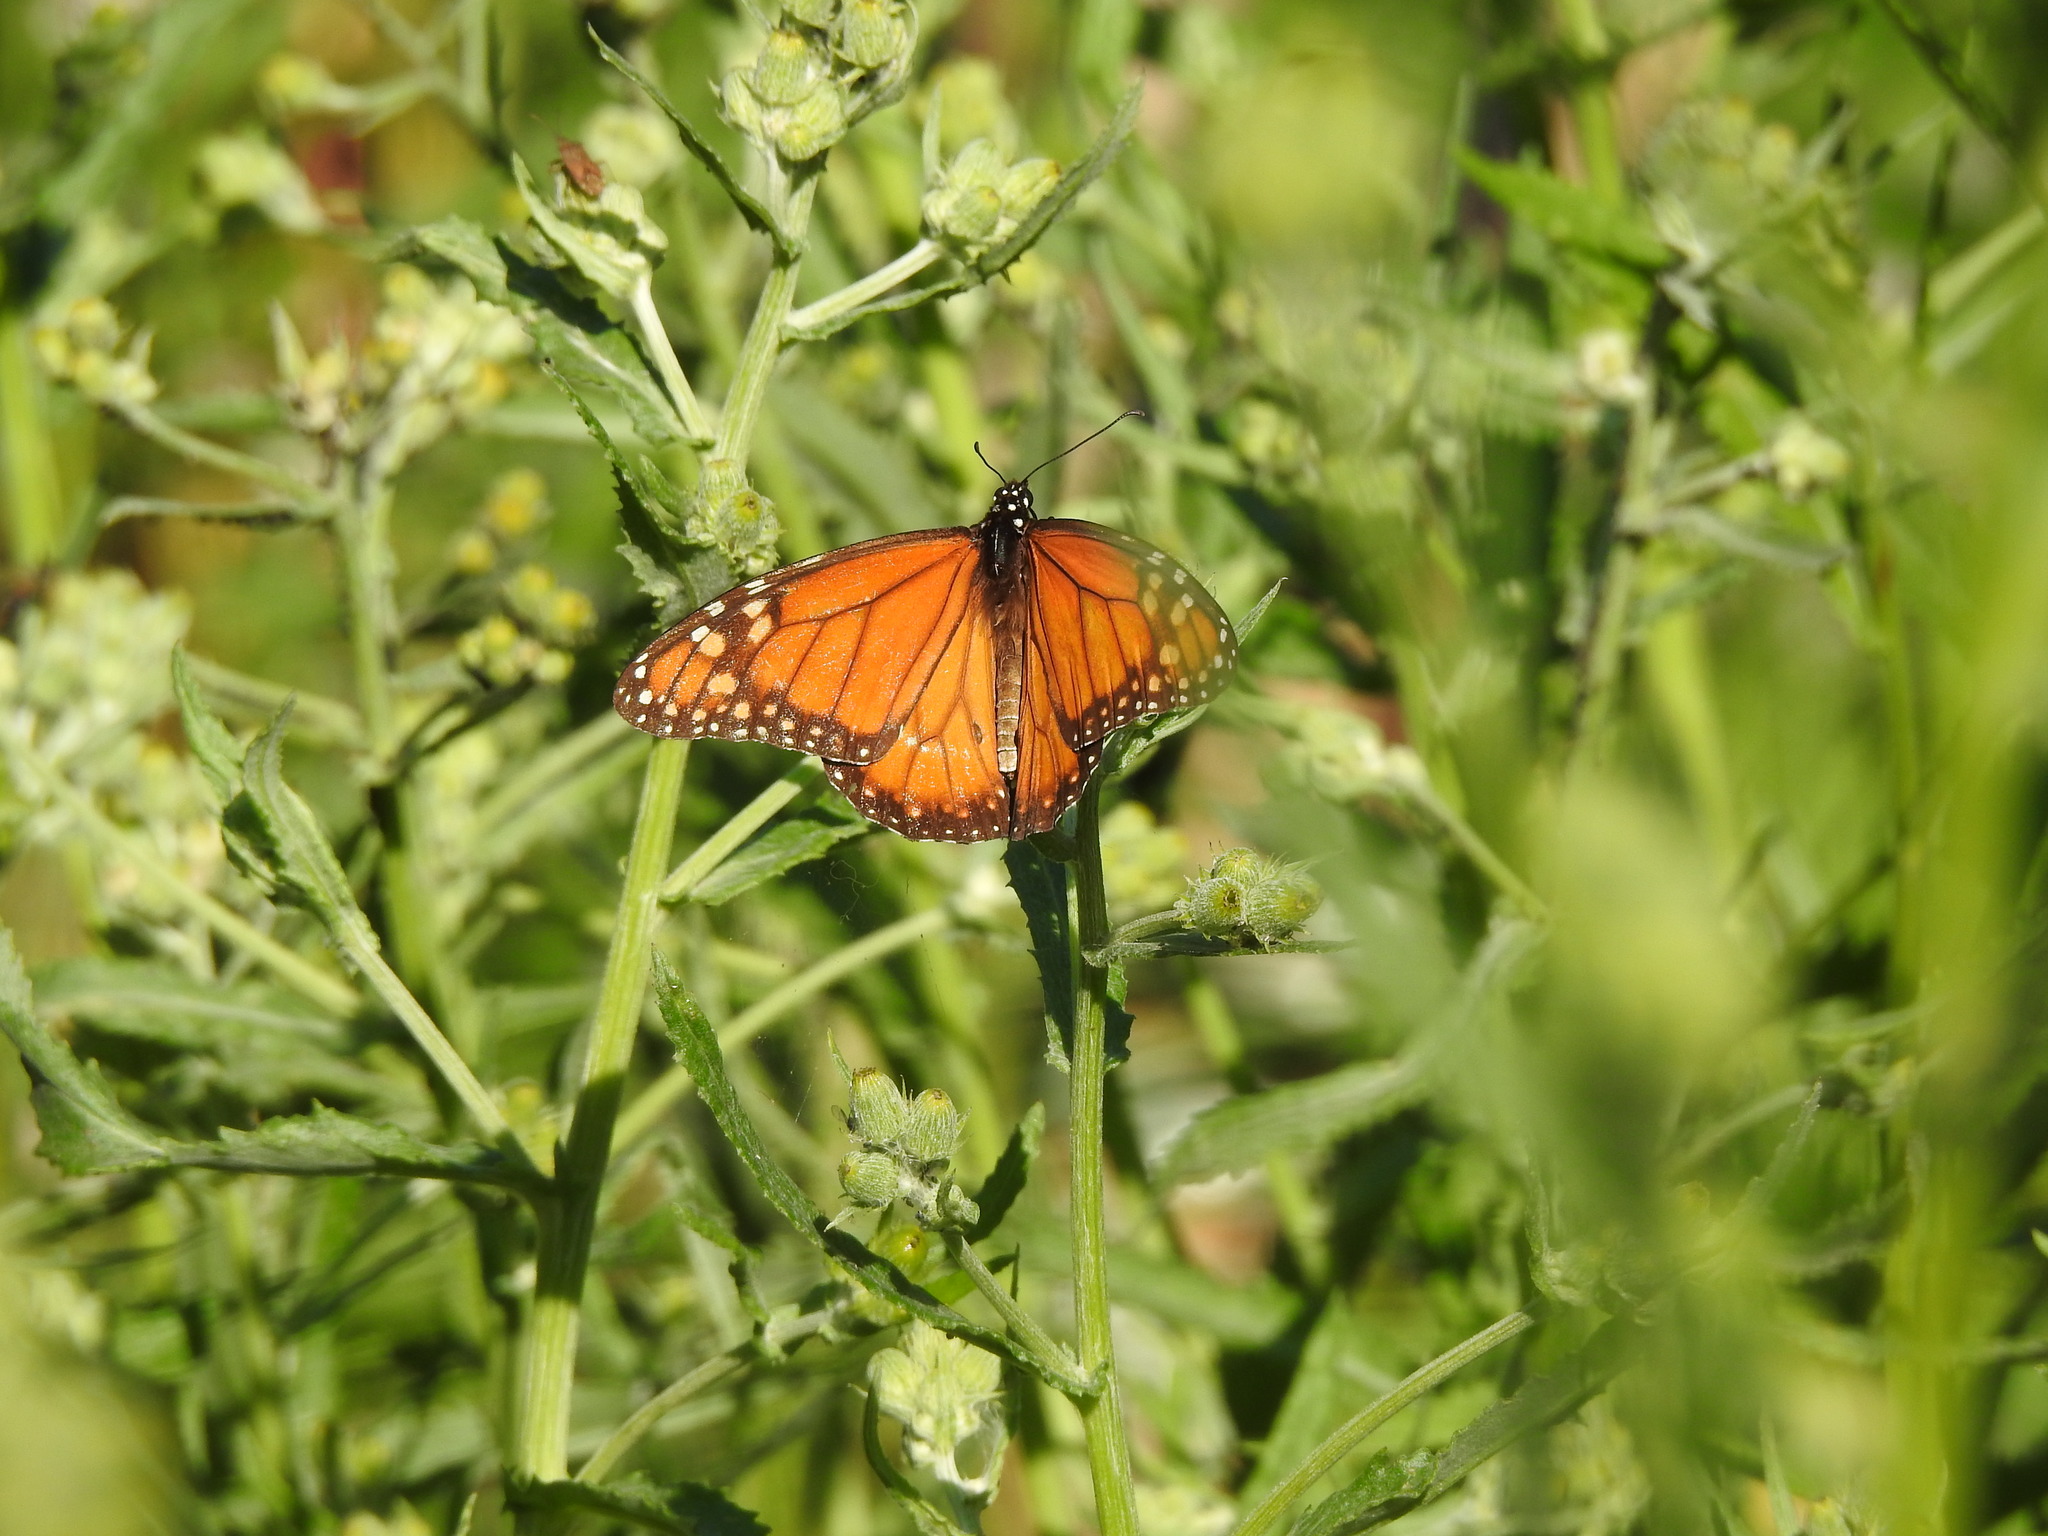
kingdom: Animalia
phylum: Arthropoda
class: Insecta
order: Lepidoptera
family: Nymphalidae
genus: Danaus
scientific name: Danaus erippus
